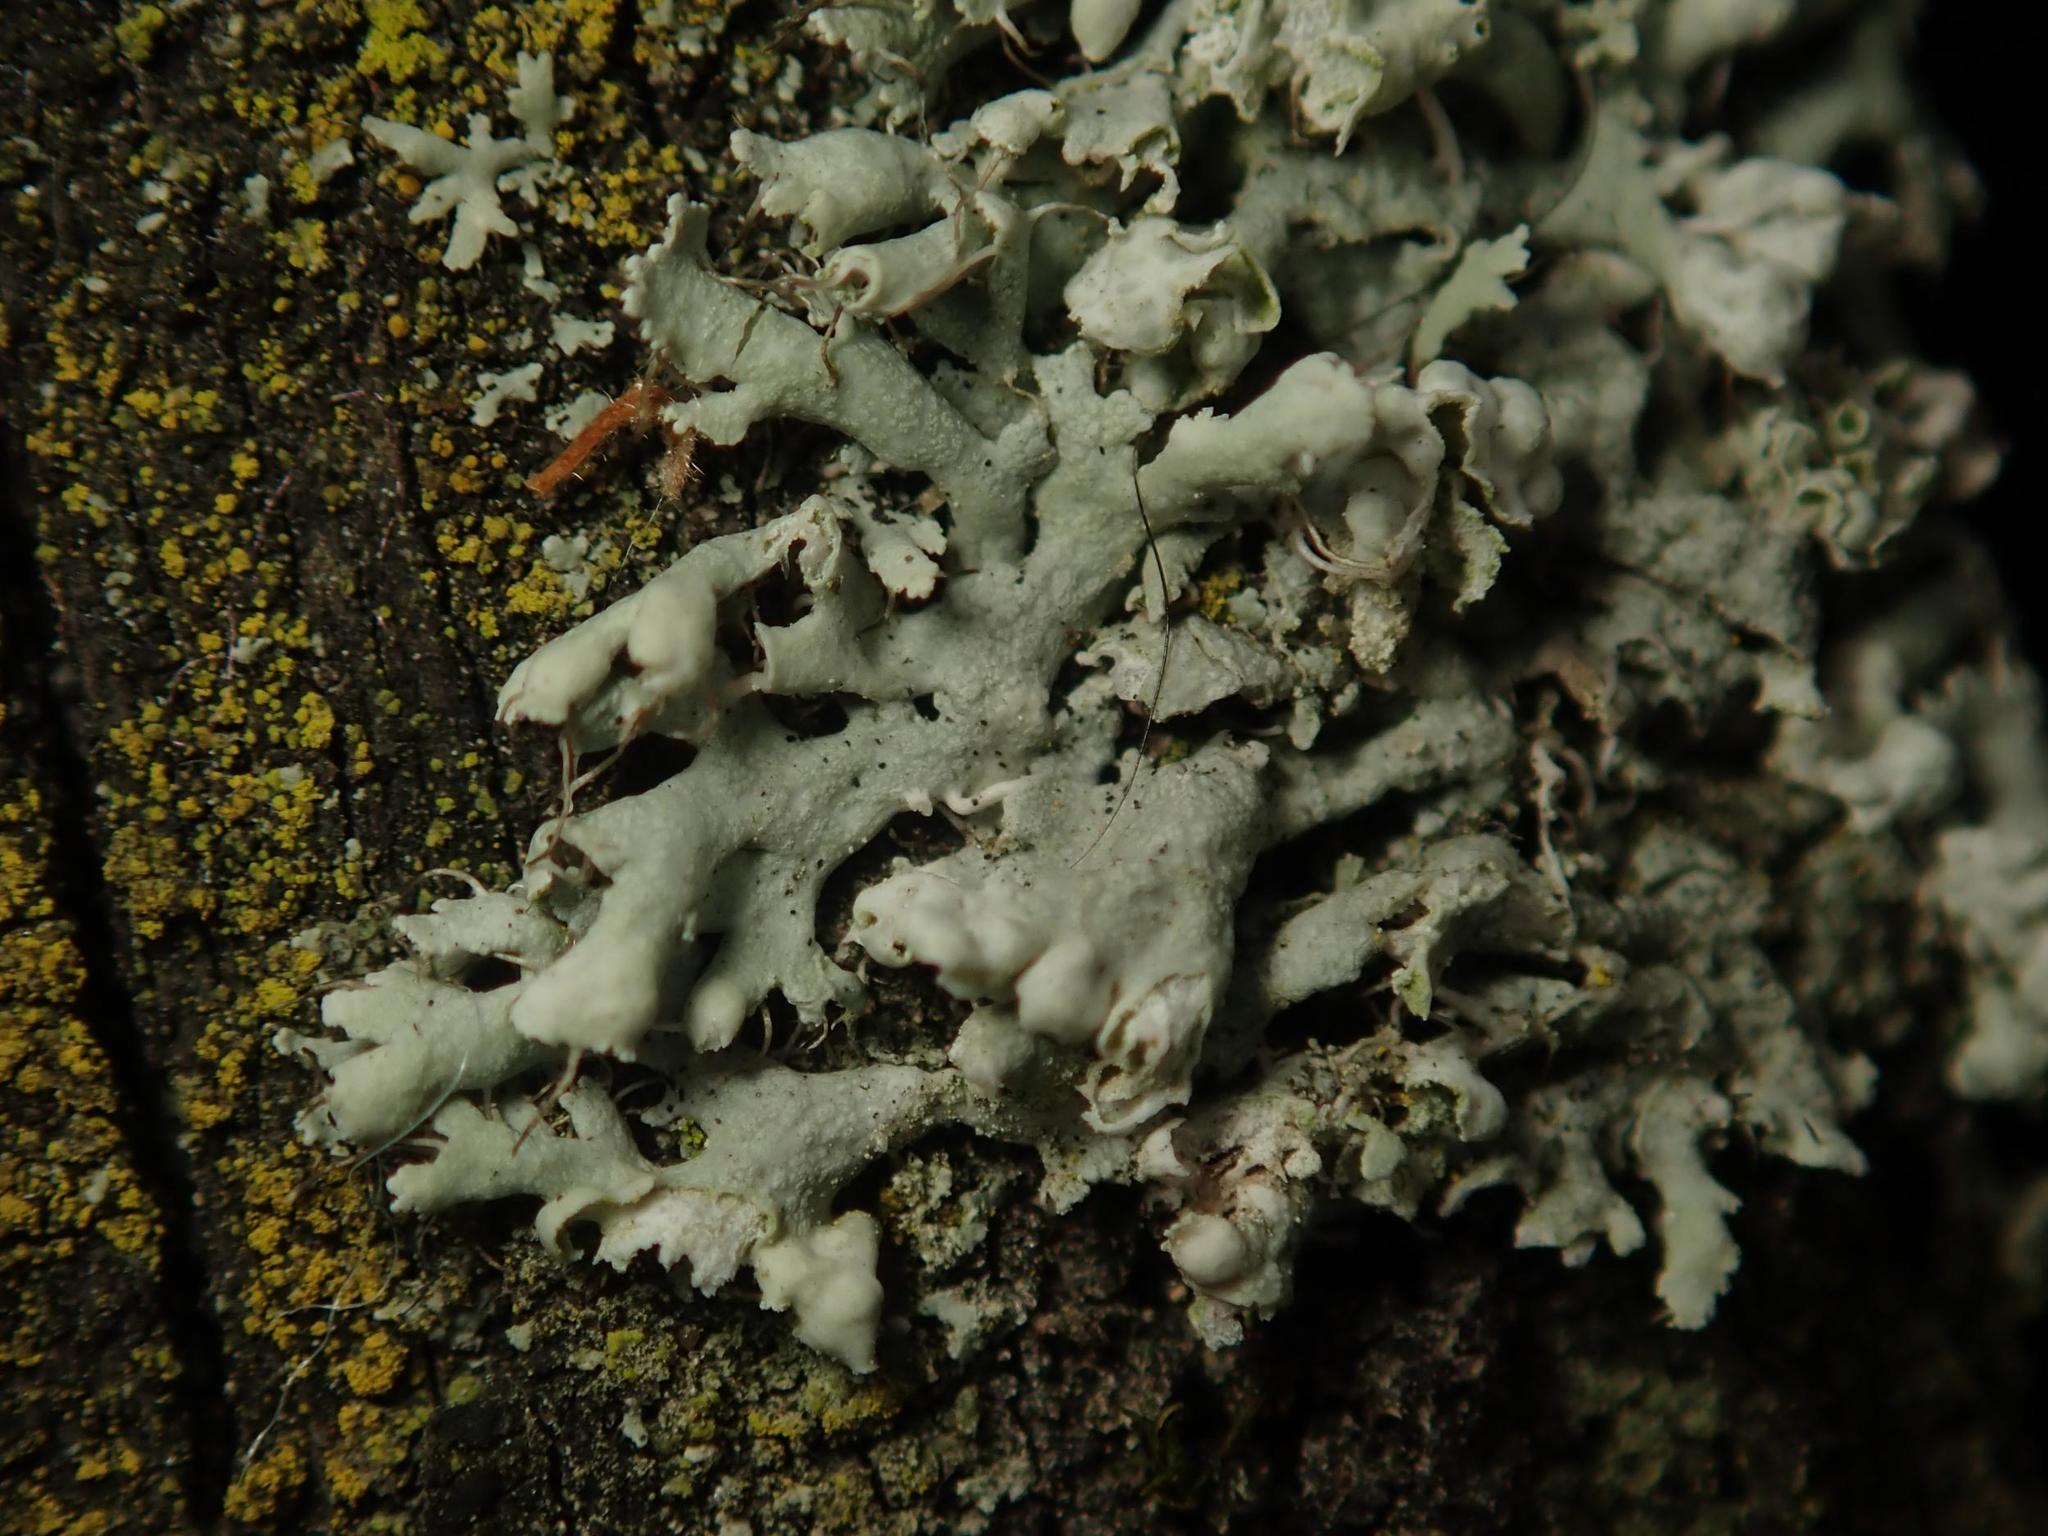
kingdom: Fungi
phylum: Ascomycota
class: Lecanoromycetes
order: Caliciales
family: Physciaceae
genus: Physcia
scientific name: Physcia adscendens
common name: Hooded rosette lichen
